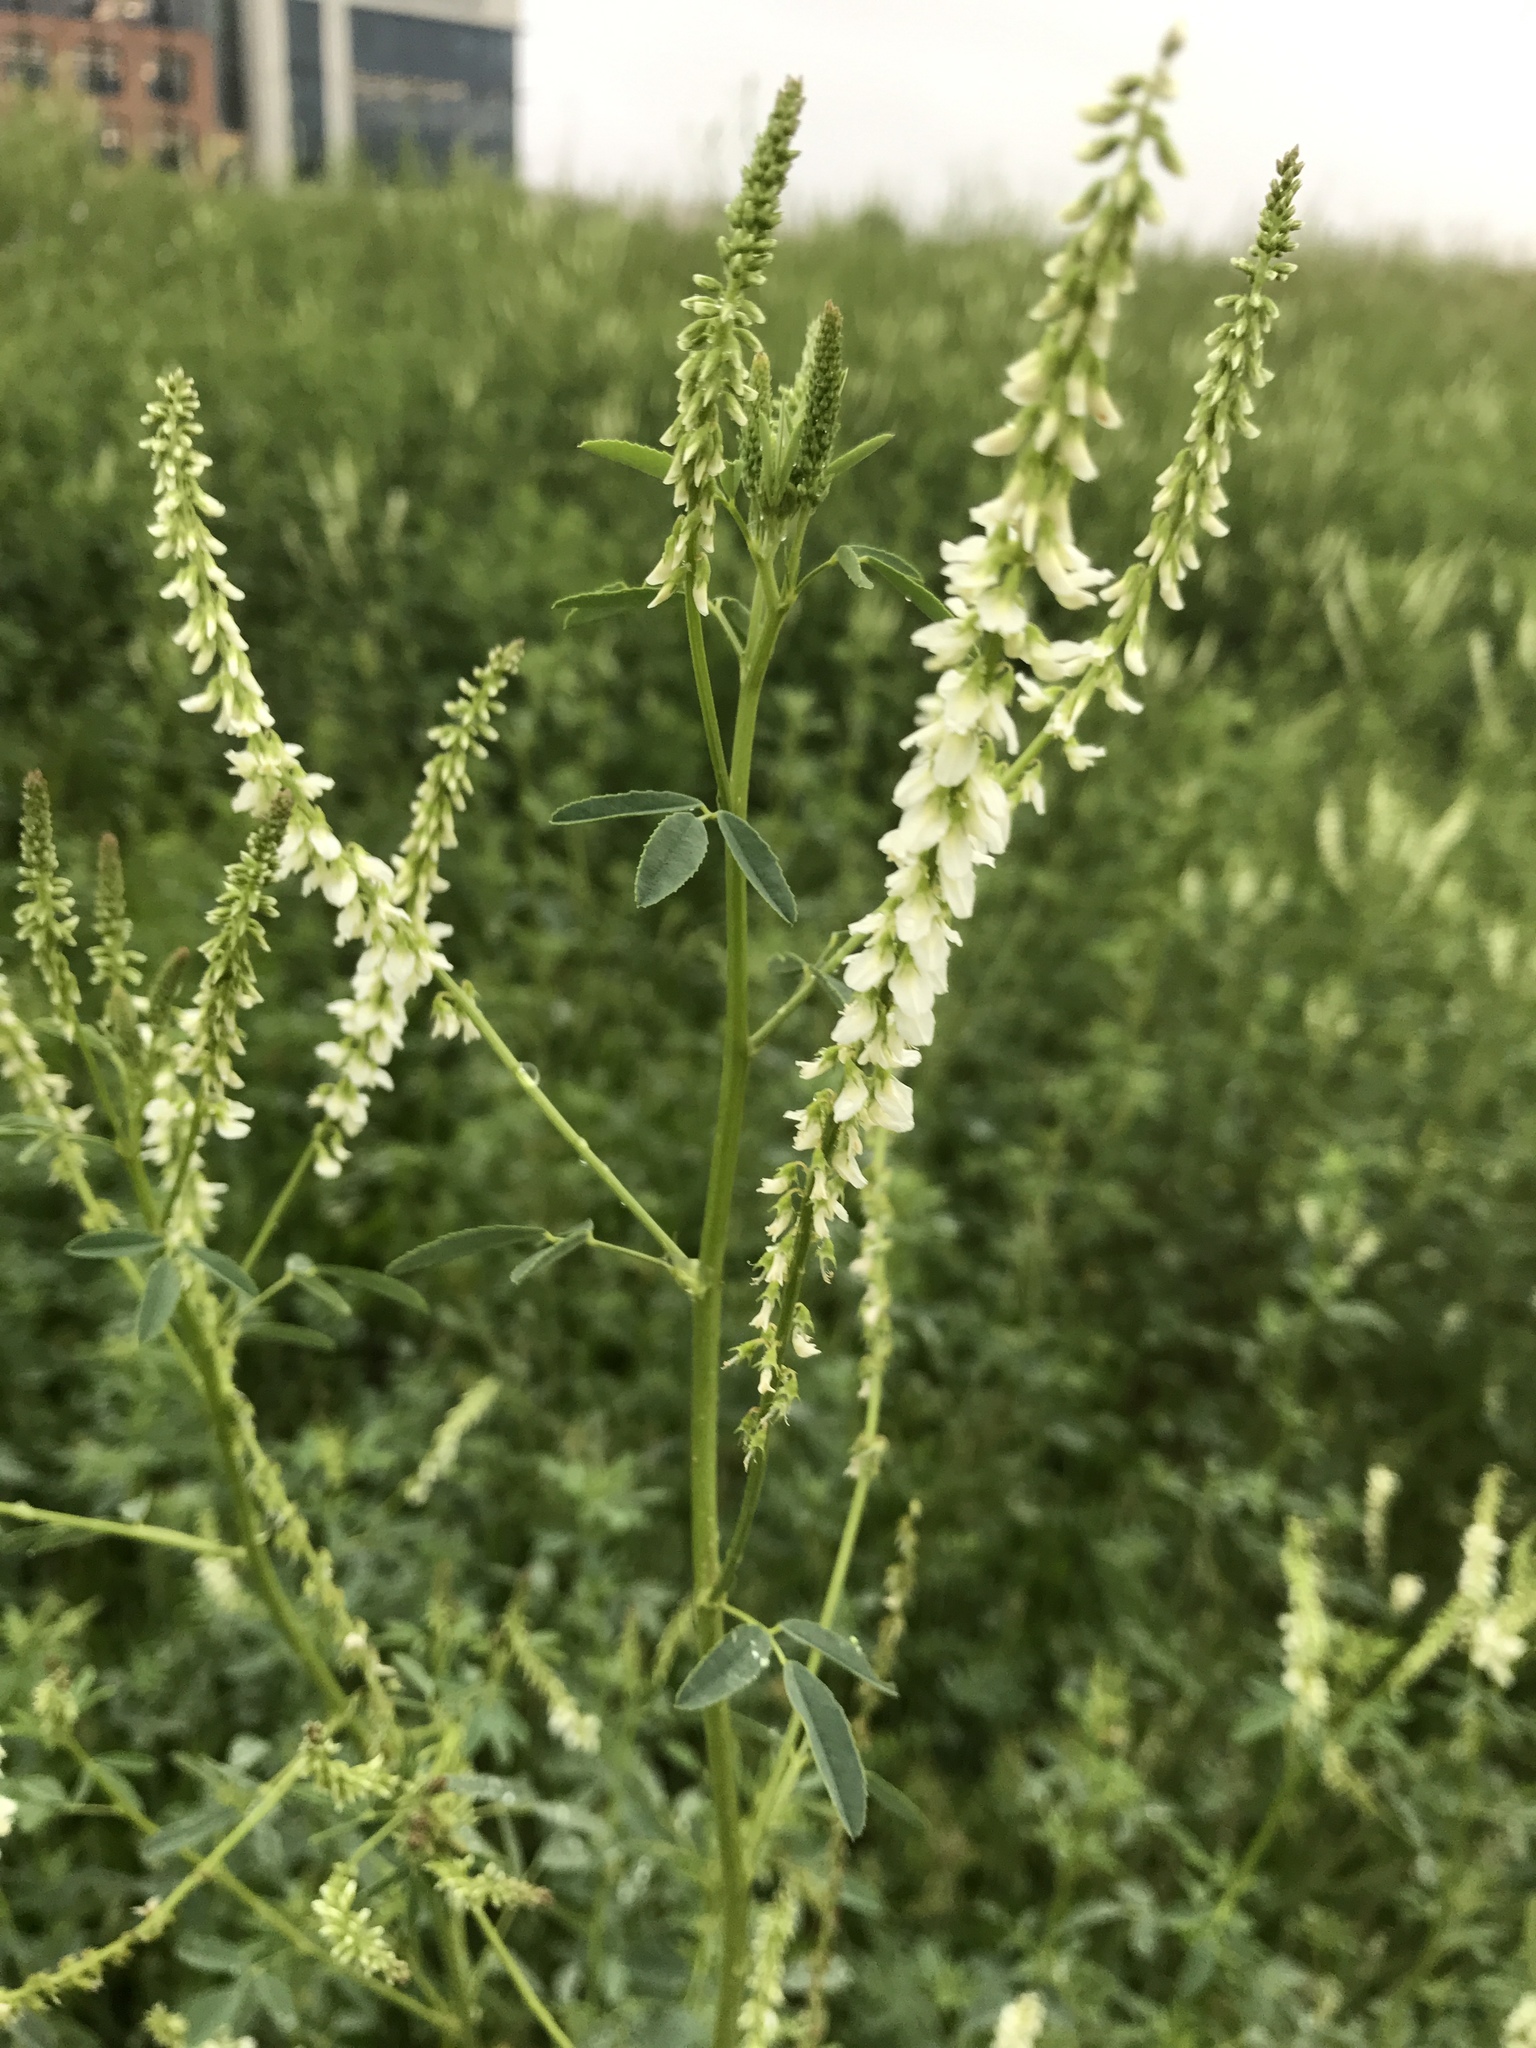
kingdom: Plantae
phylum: Tracheophyta
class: Magnoliopsida
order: Fabales
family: Fabaceae
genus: Melilotus
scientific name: Melilotus albus
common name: White melilot
